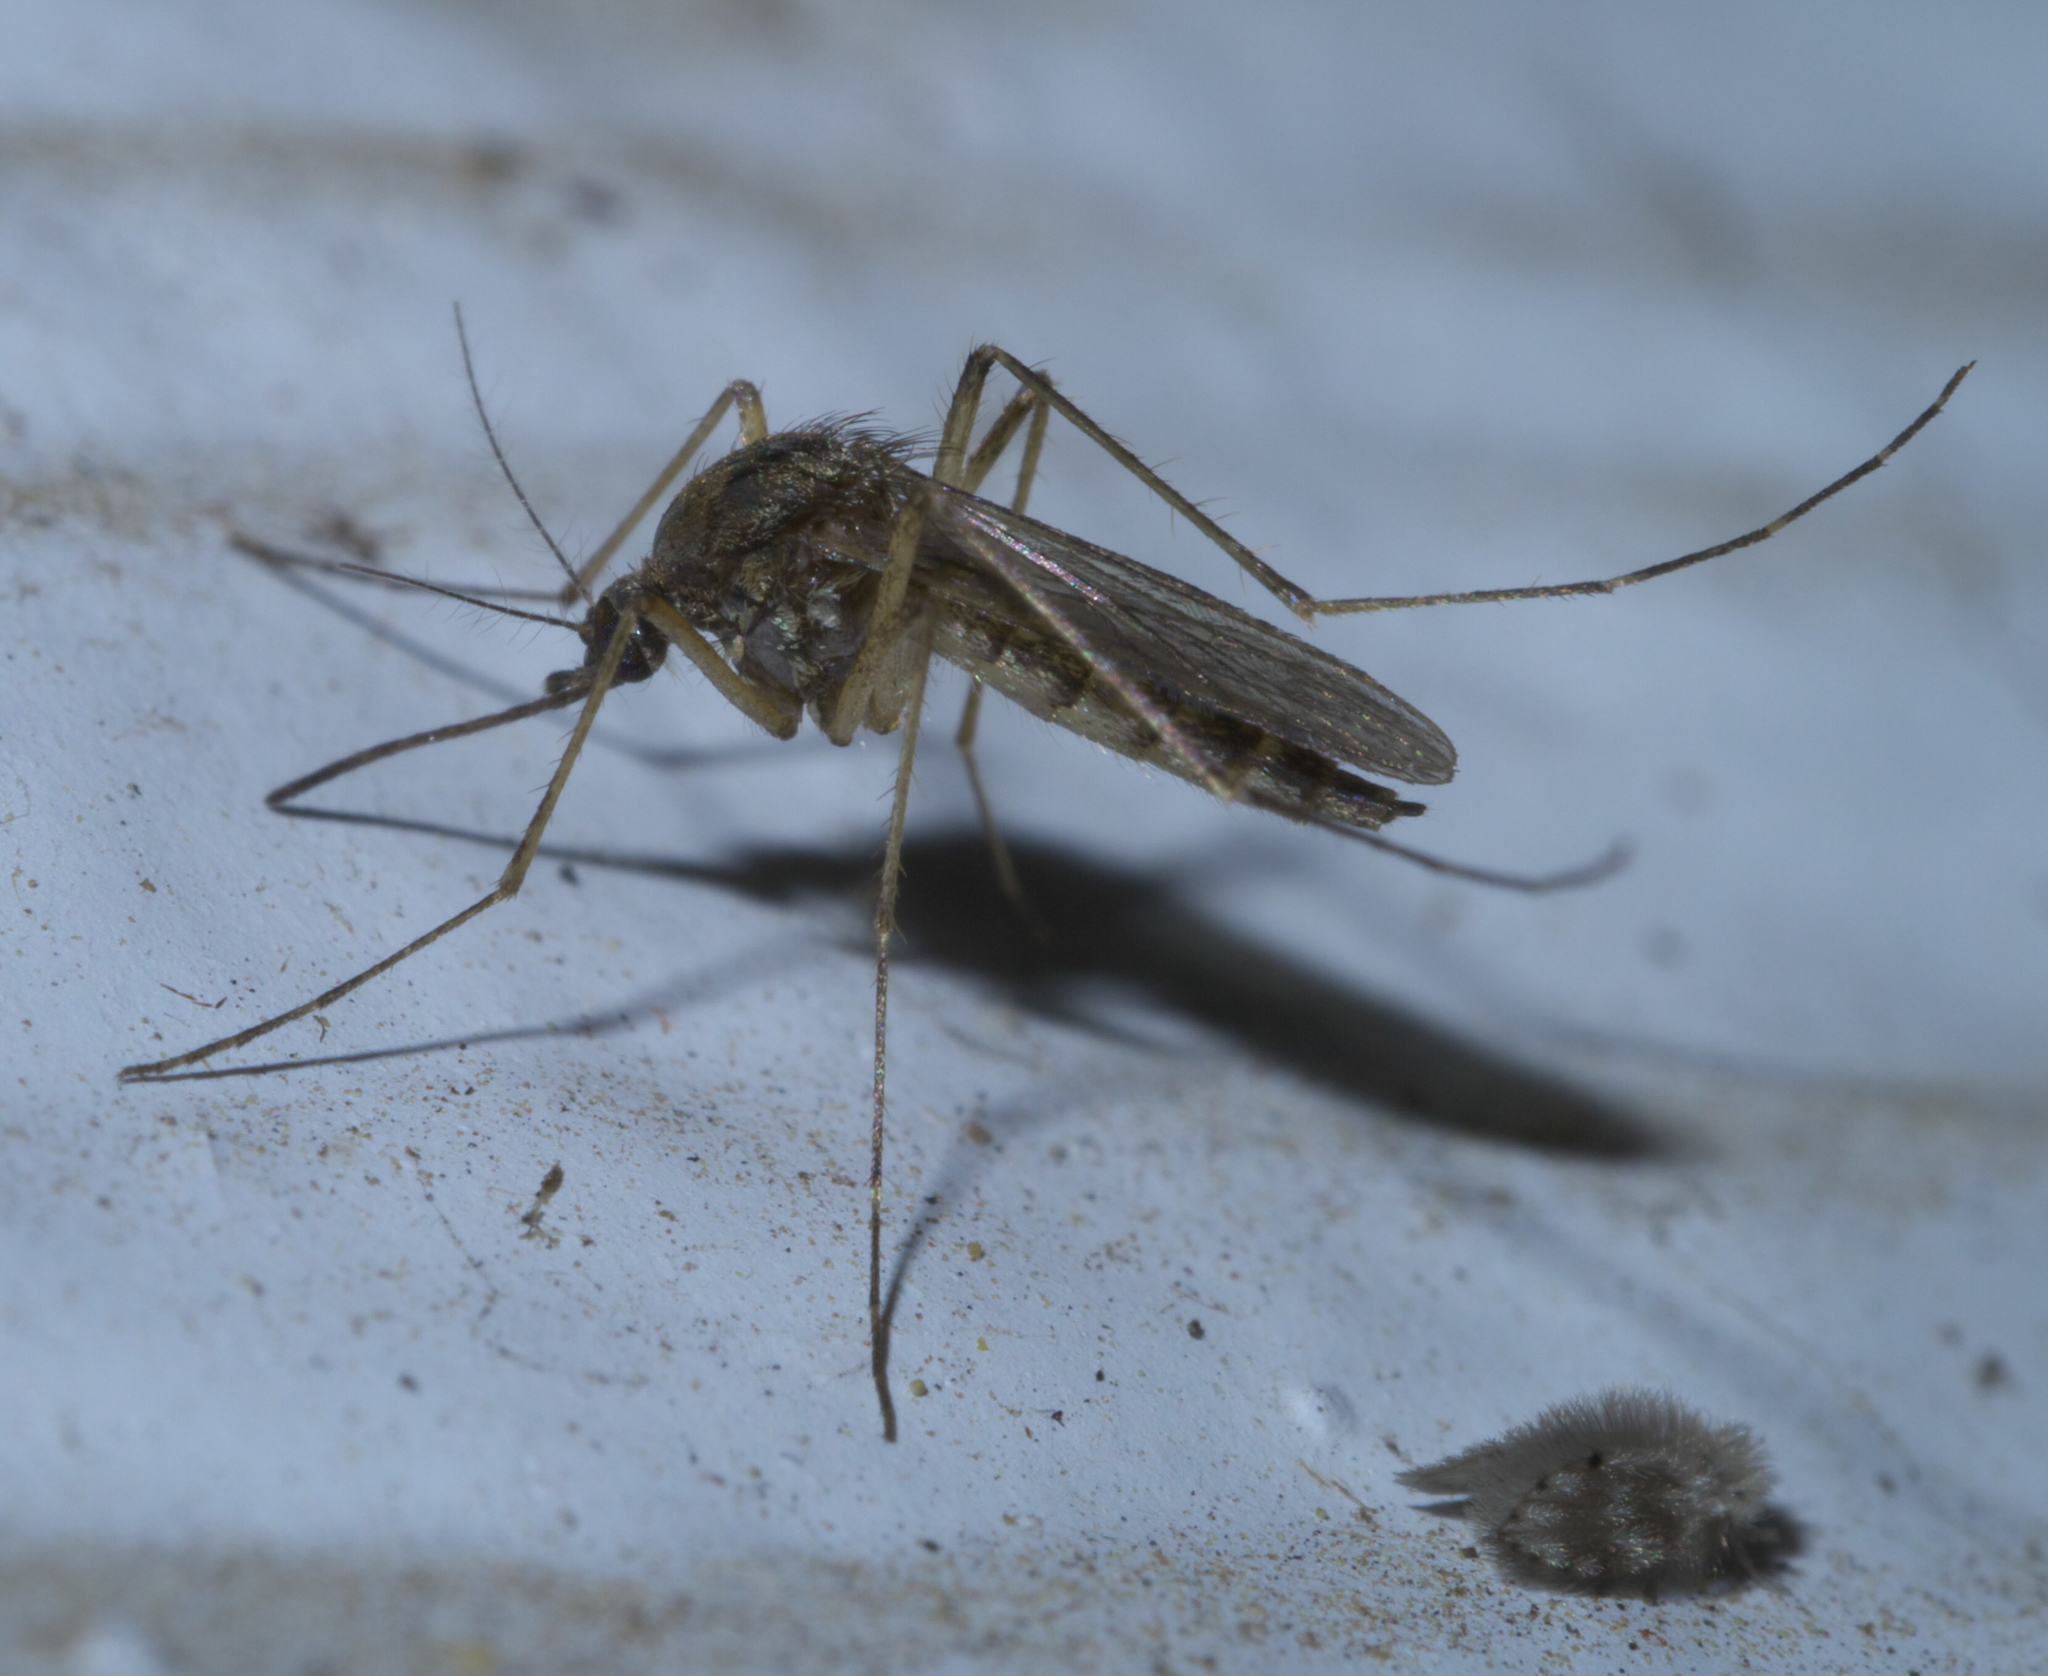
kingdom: Animalia
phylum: Arthropoda
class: Insecta
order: Diptera
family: Culicidae
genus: Aedes
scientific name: Aedes vexans
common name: Inland floodwater mosquito
